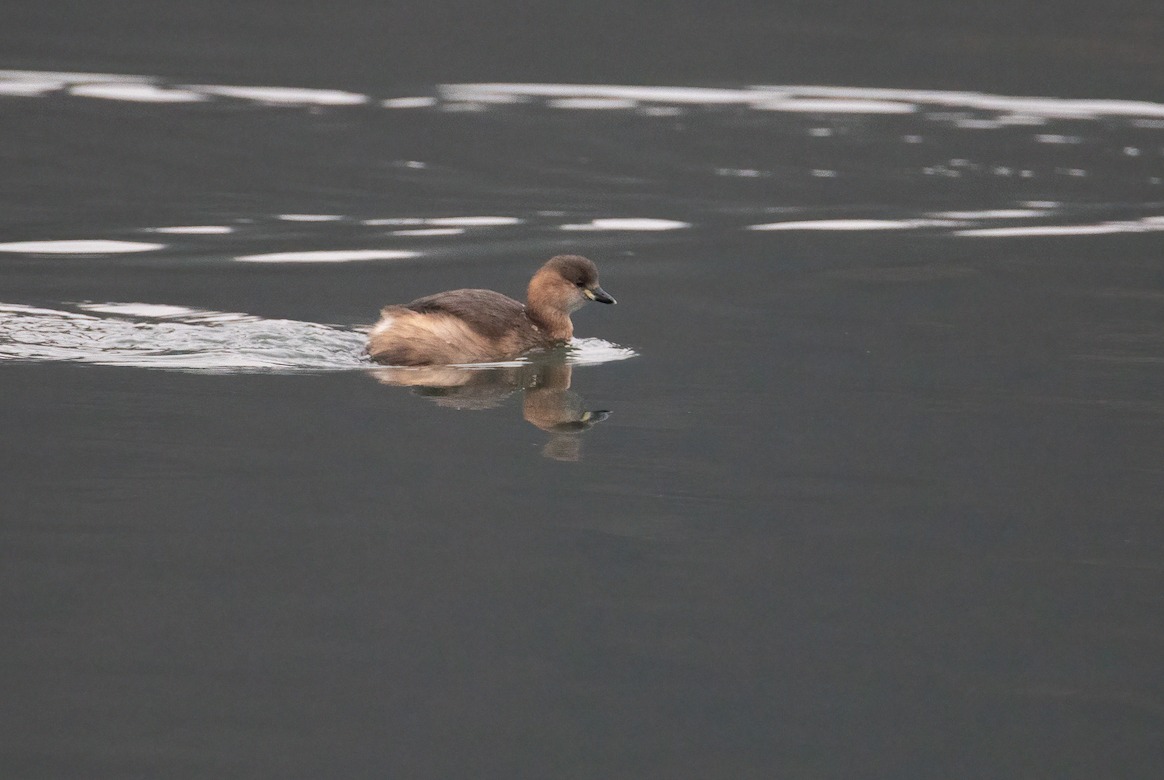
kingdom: Animalia
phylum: Chordata
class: Aves
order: Podicipediformes
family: Podicipedidae
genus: Tachybaptus
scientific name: Tachybaptus ruficollis
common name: Little grebe
